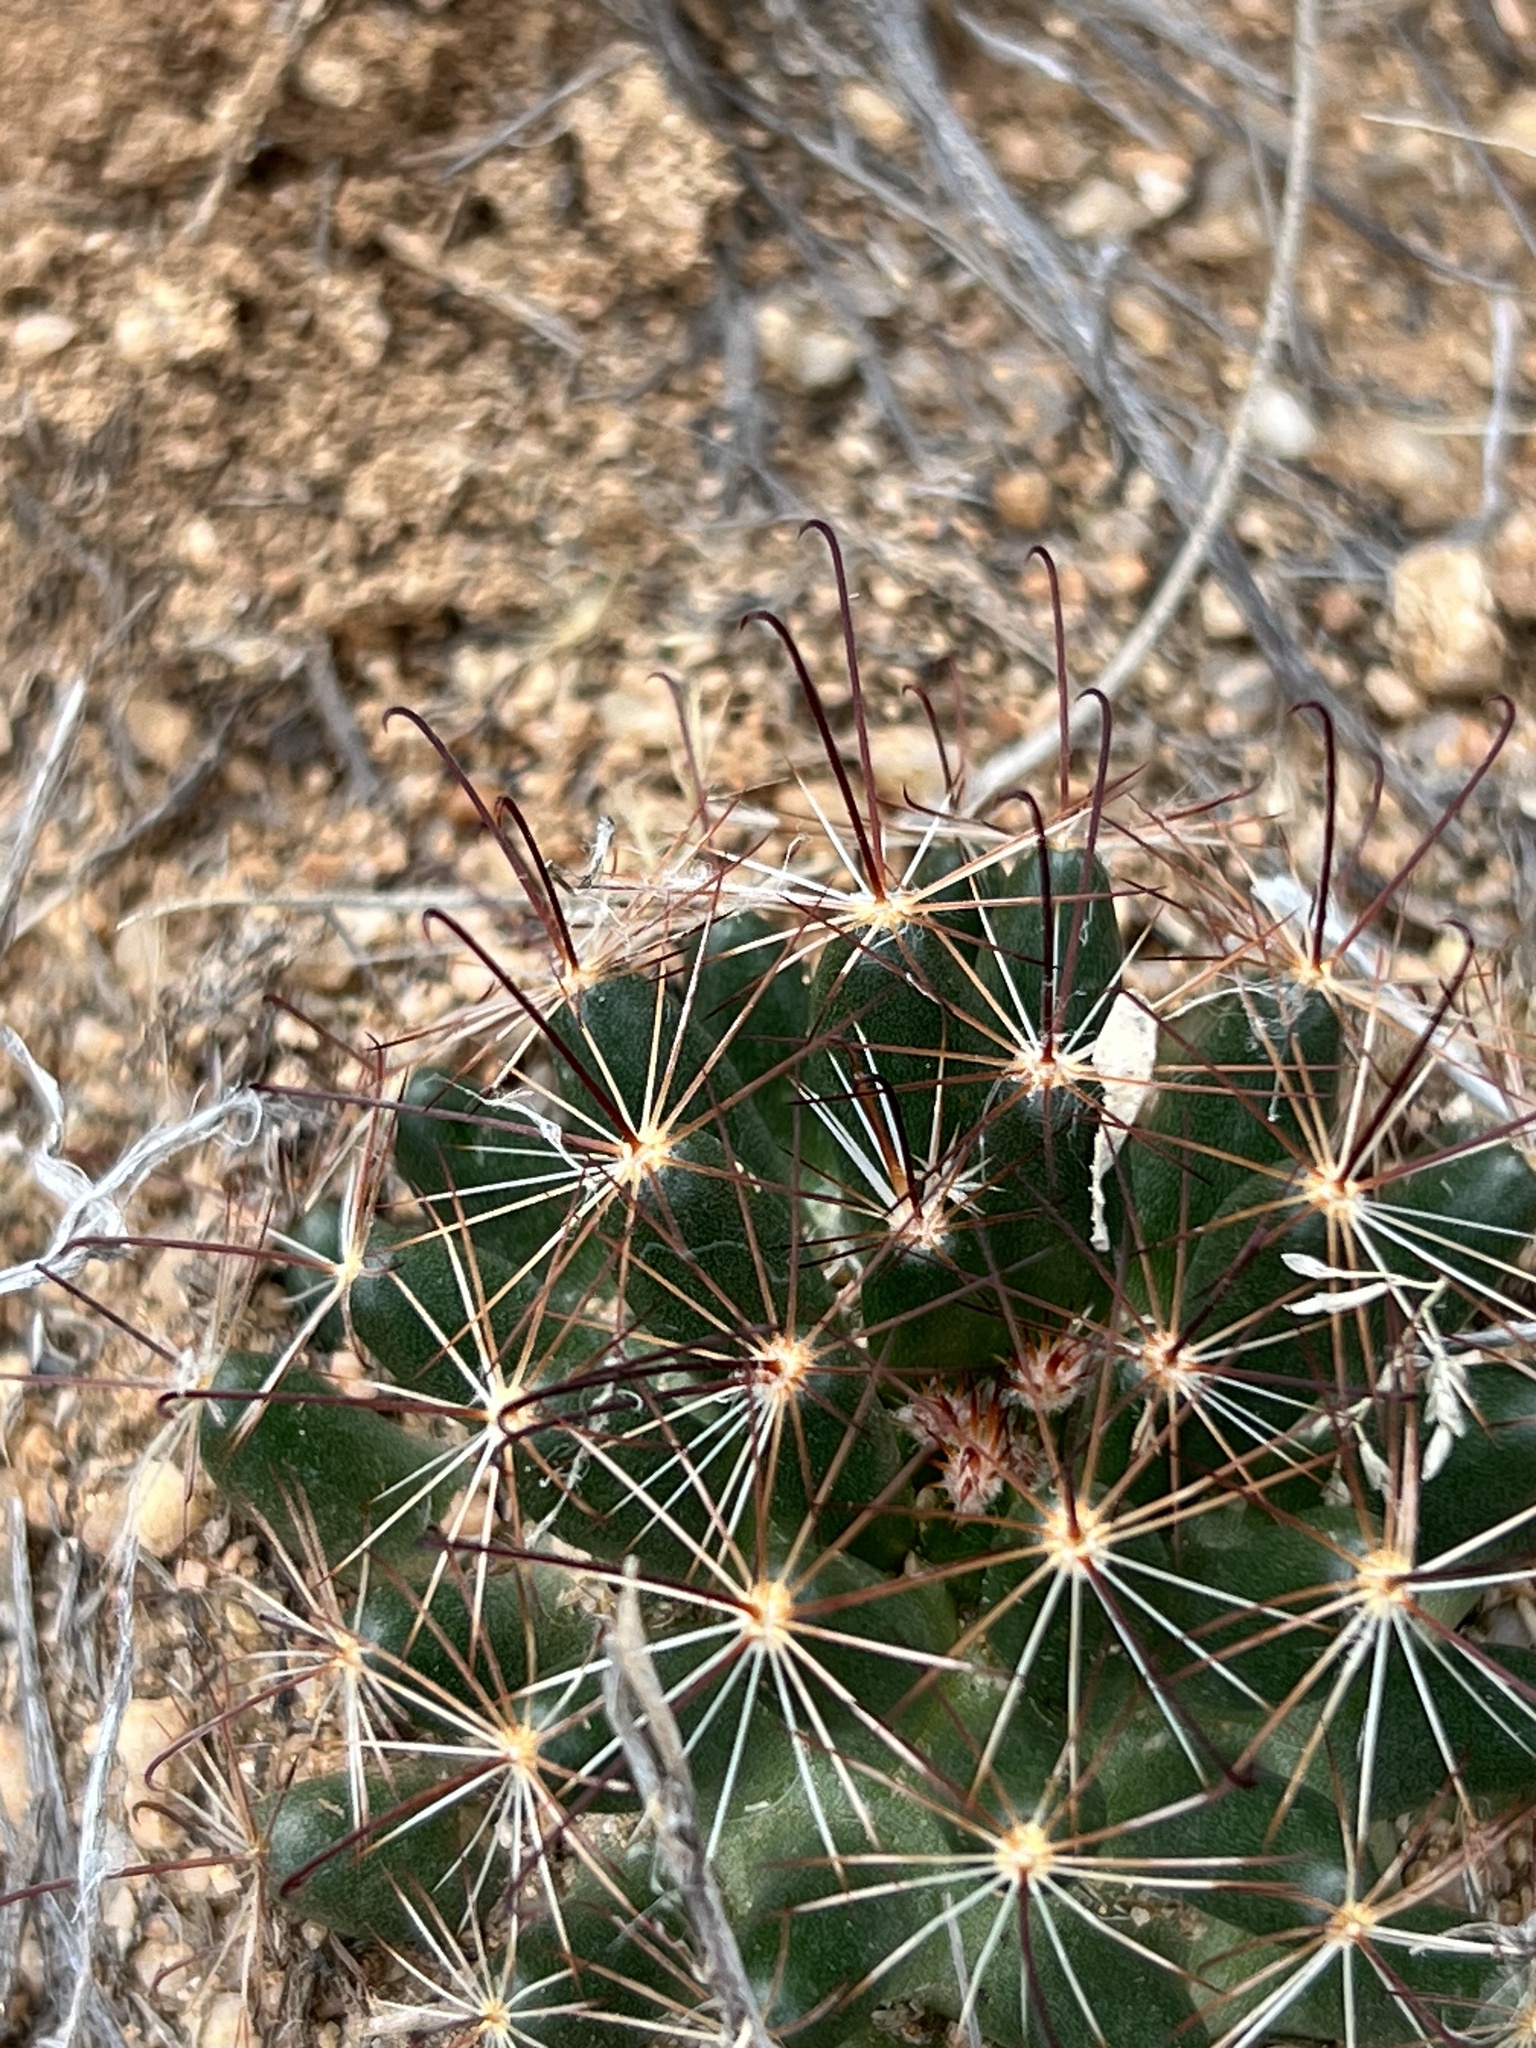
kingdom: Plantae
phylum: Tracheophyta
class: Magnoliopsida
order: Caryophyllales
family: Cactaceae
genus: Cochemiea
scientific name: Cochemiea wrightii
